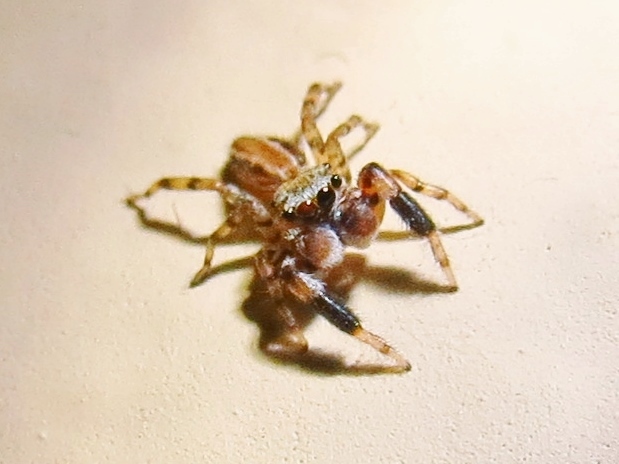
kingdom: Animalia
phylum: Arthropoda
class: Arachnida
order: Araneae
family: Salticidae
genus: Marpissa
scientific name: Marpissa lineata
